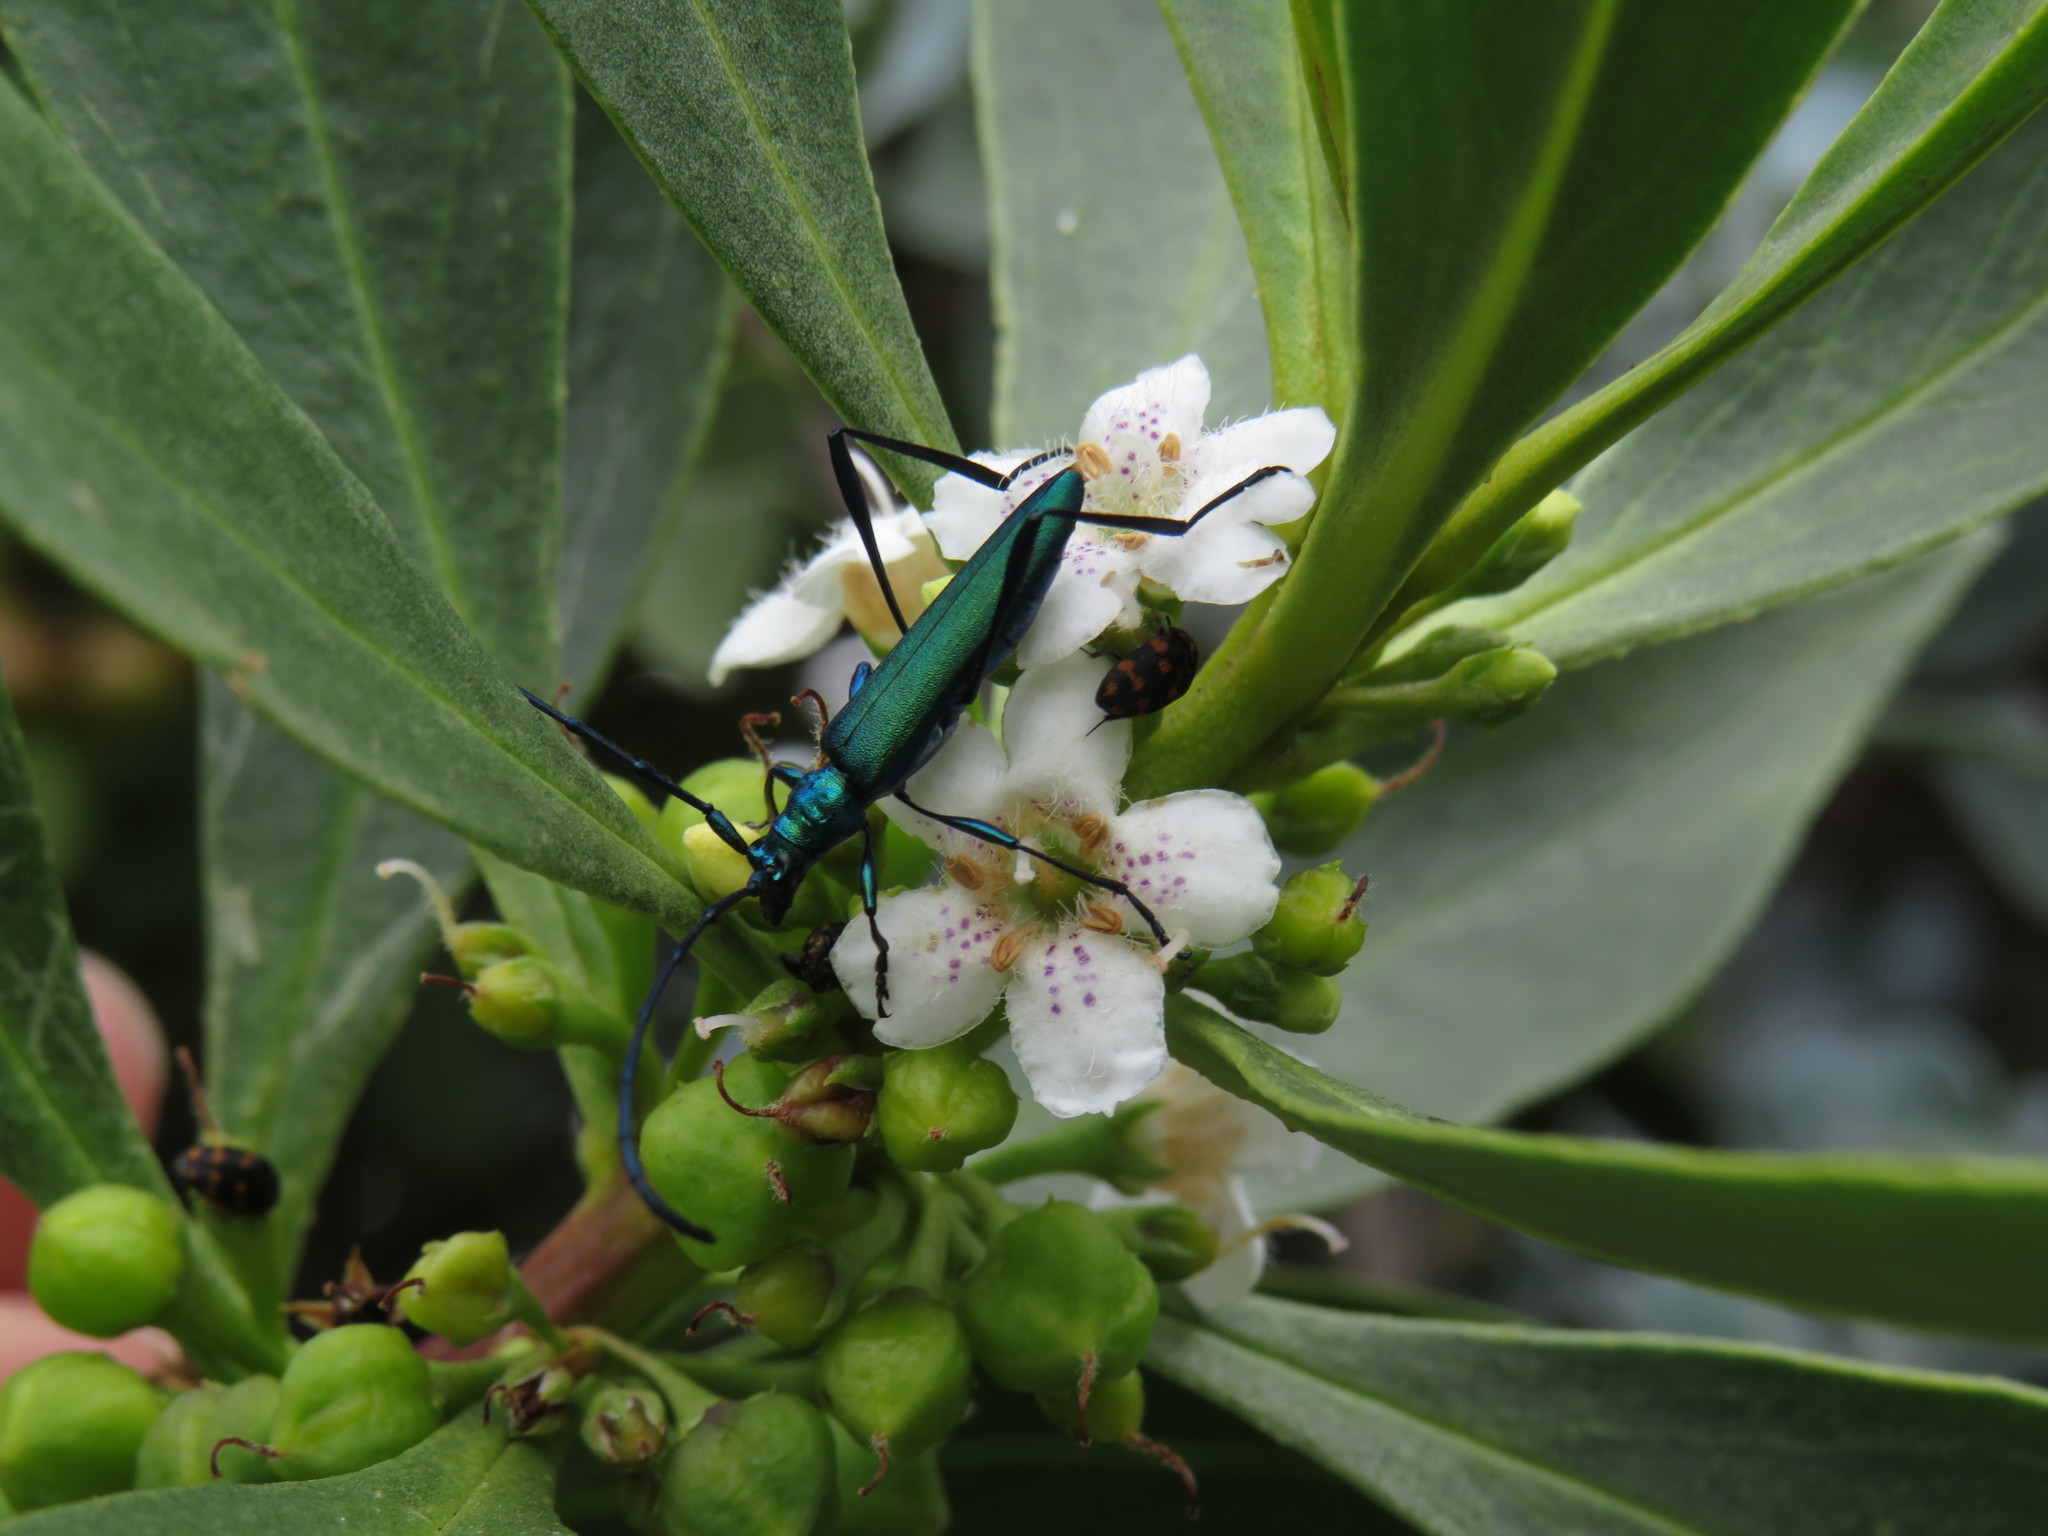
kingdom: Animalia
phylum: Arthropoda
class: Insecta
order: Coleoptera
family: Cerambycidae
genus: Promeces
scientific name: Promeces longipes
